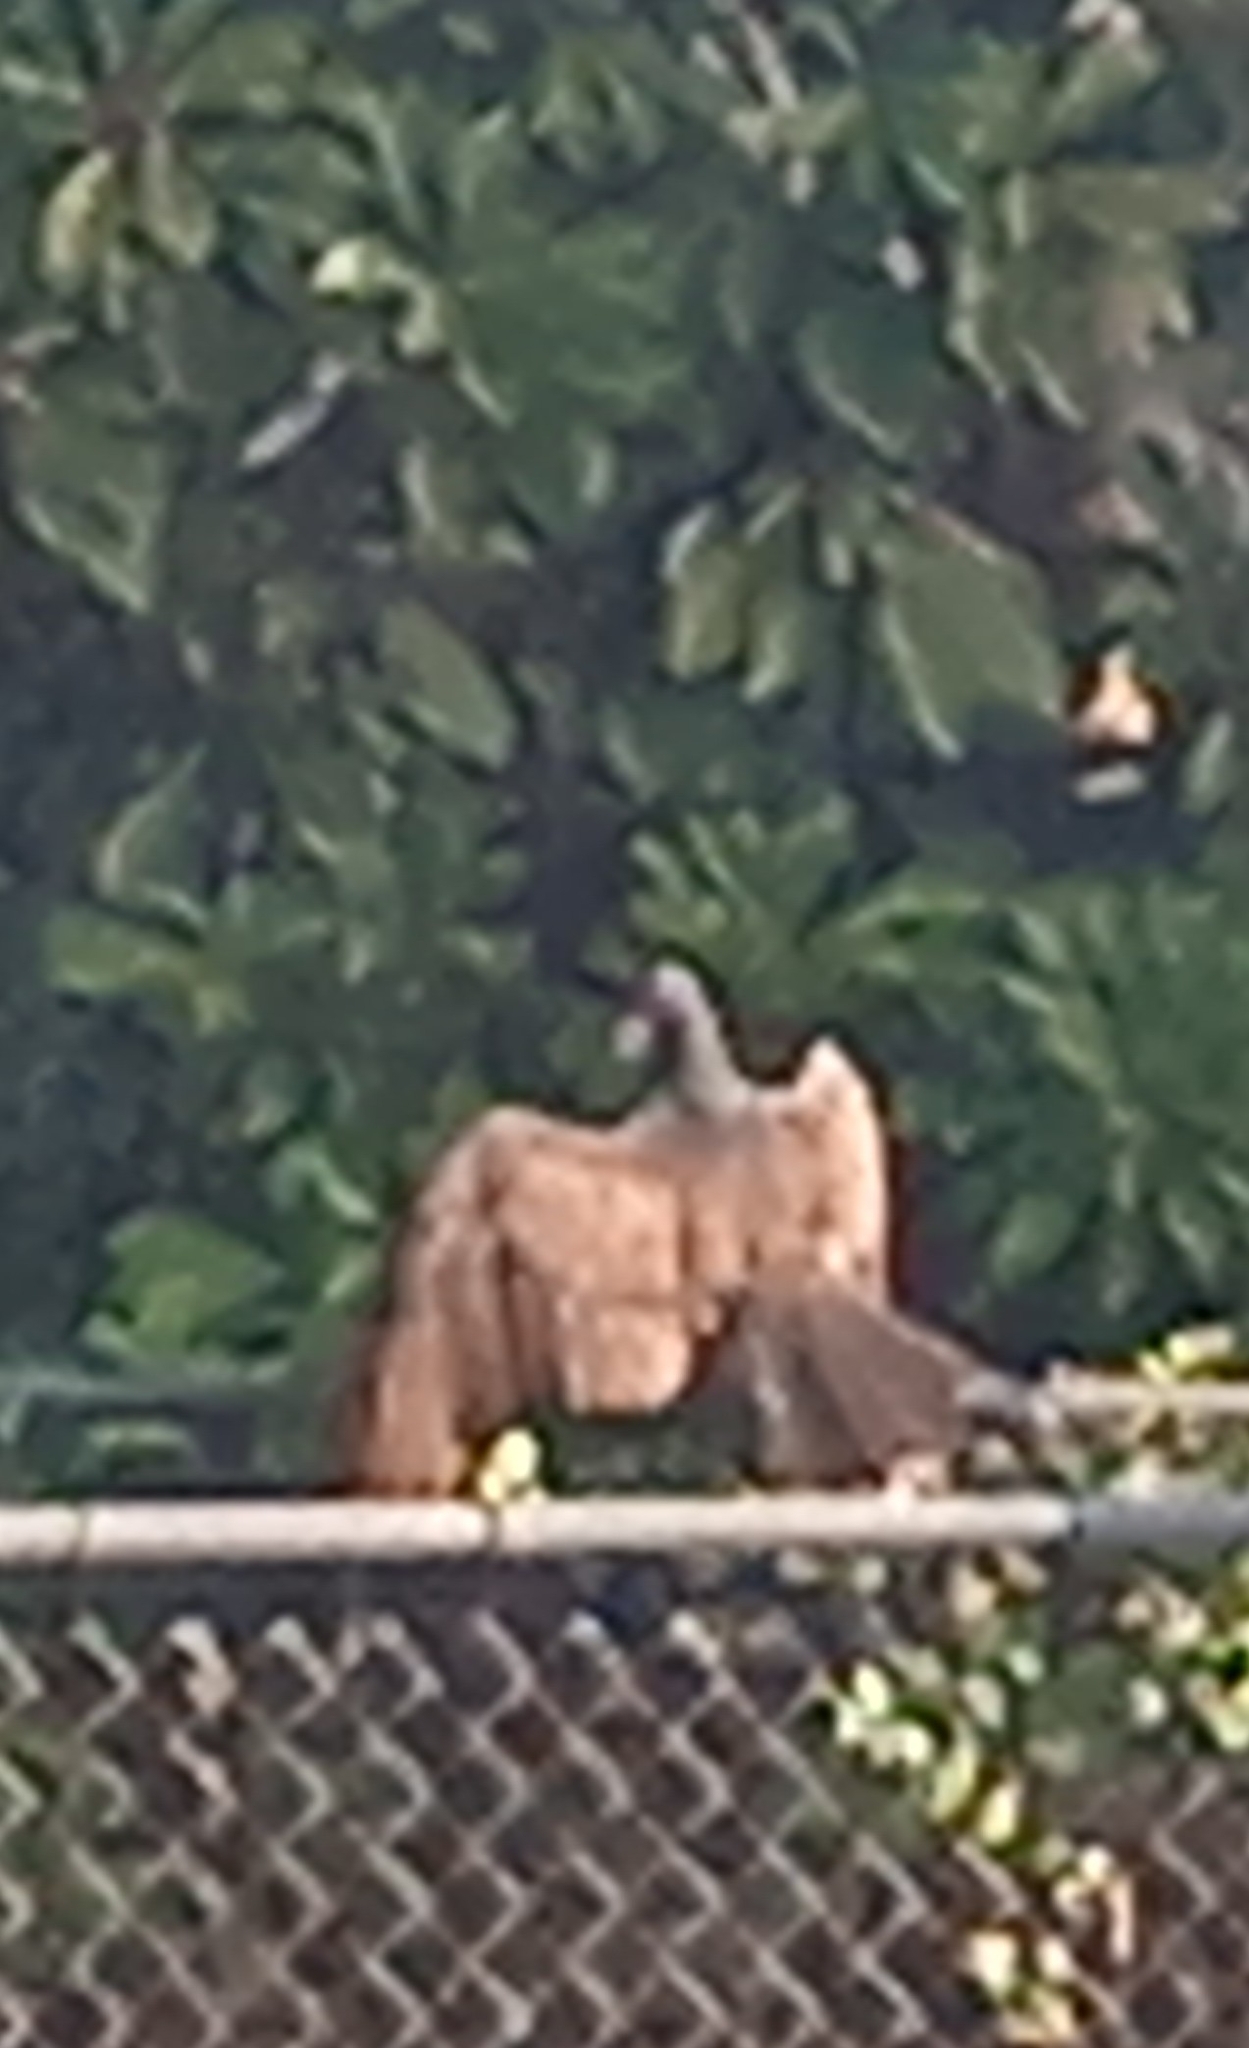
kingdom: Animalia
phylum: Chordata
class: Aves
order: Accipitriformes
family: Cathartidae
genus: Cathartes
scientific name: Cathartes aura
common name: Turkey vulture
